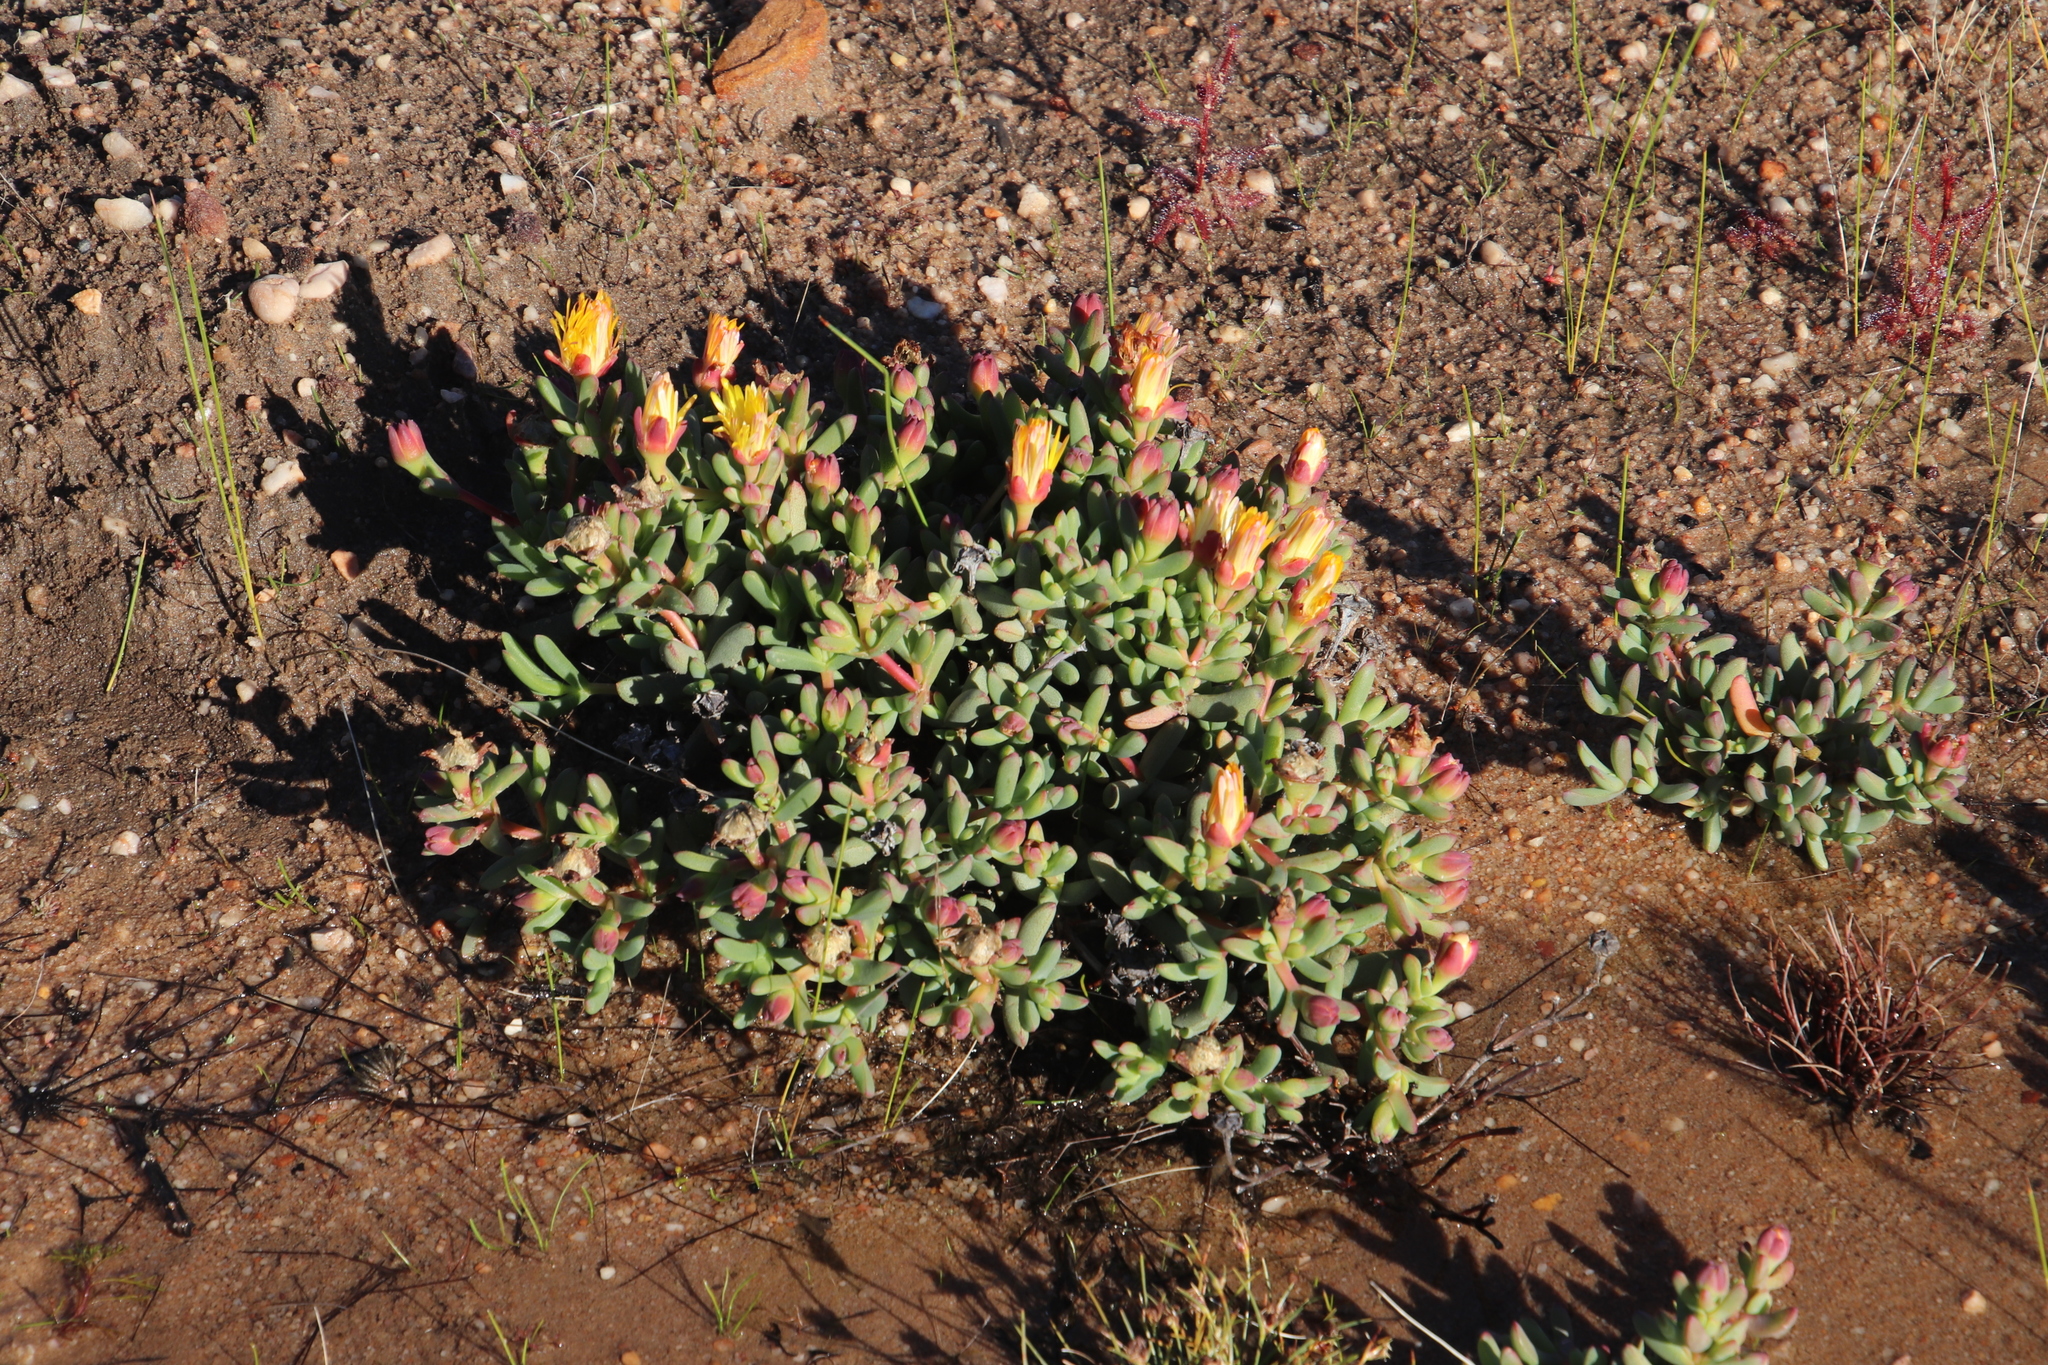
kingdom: Plantae
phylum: Tracheophyta
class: Magnoliopsida
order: Caryophyllales
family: Aizoaceae
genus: Lampranthus
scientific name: Lampranthus glaucus
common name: Noonflower
